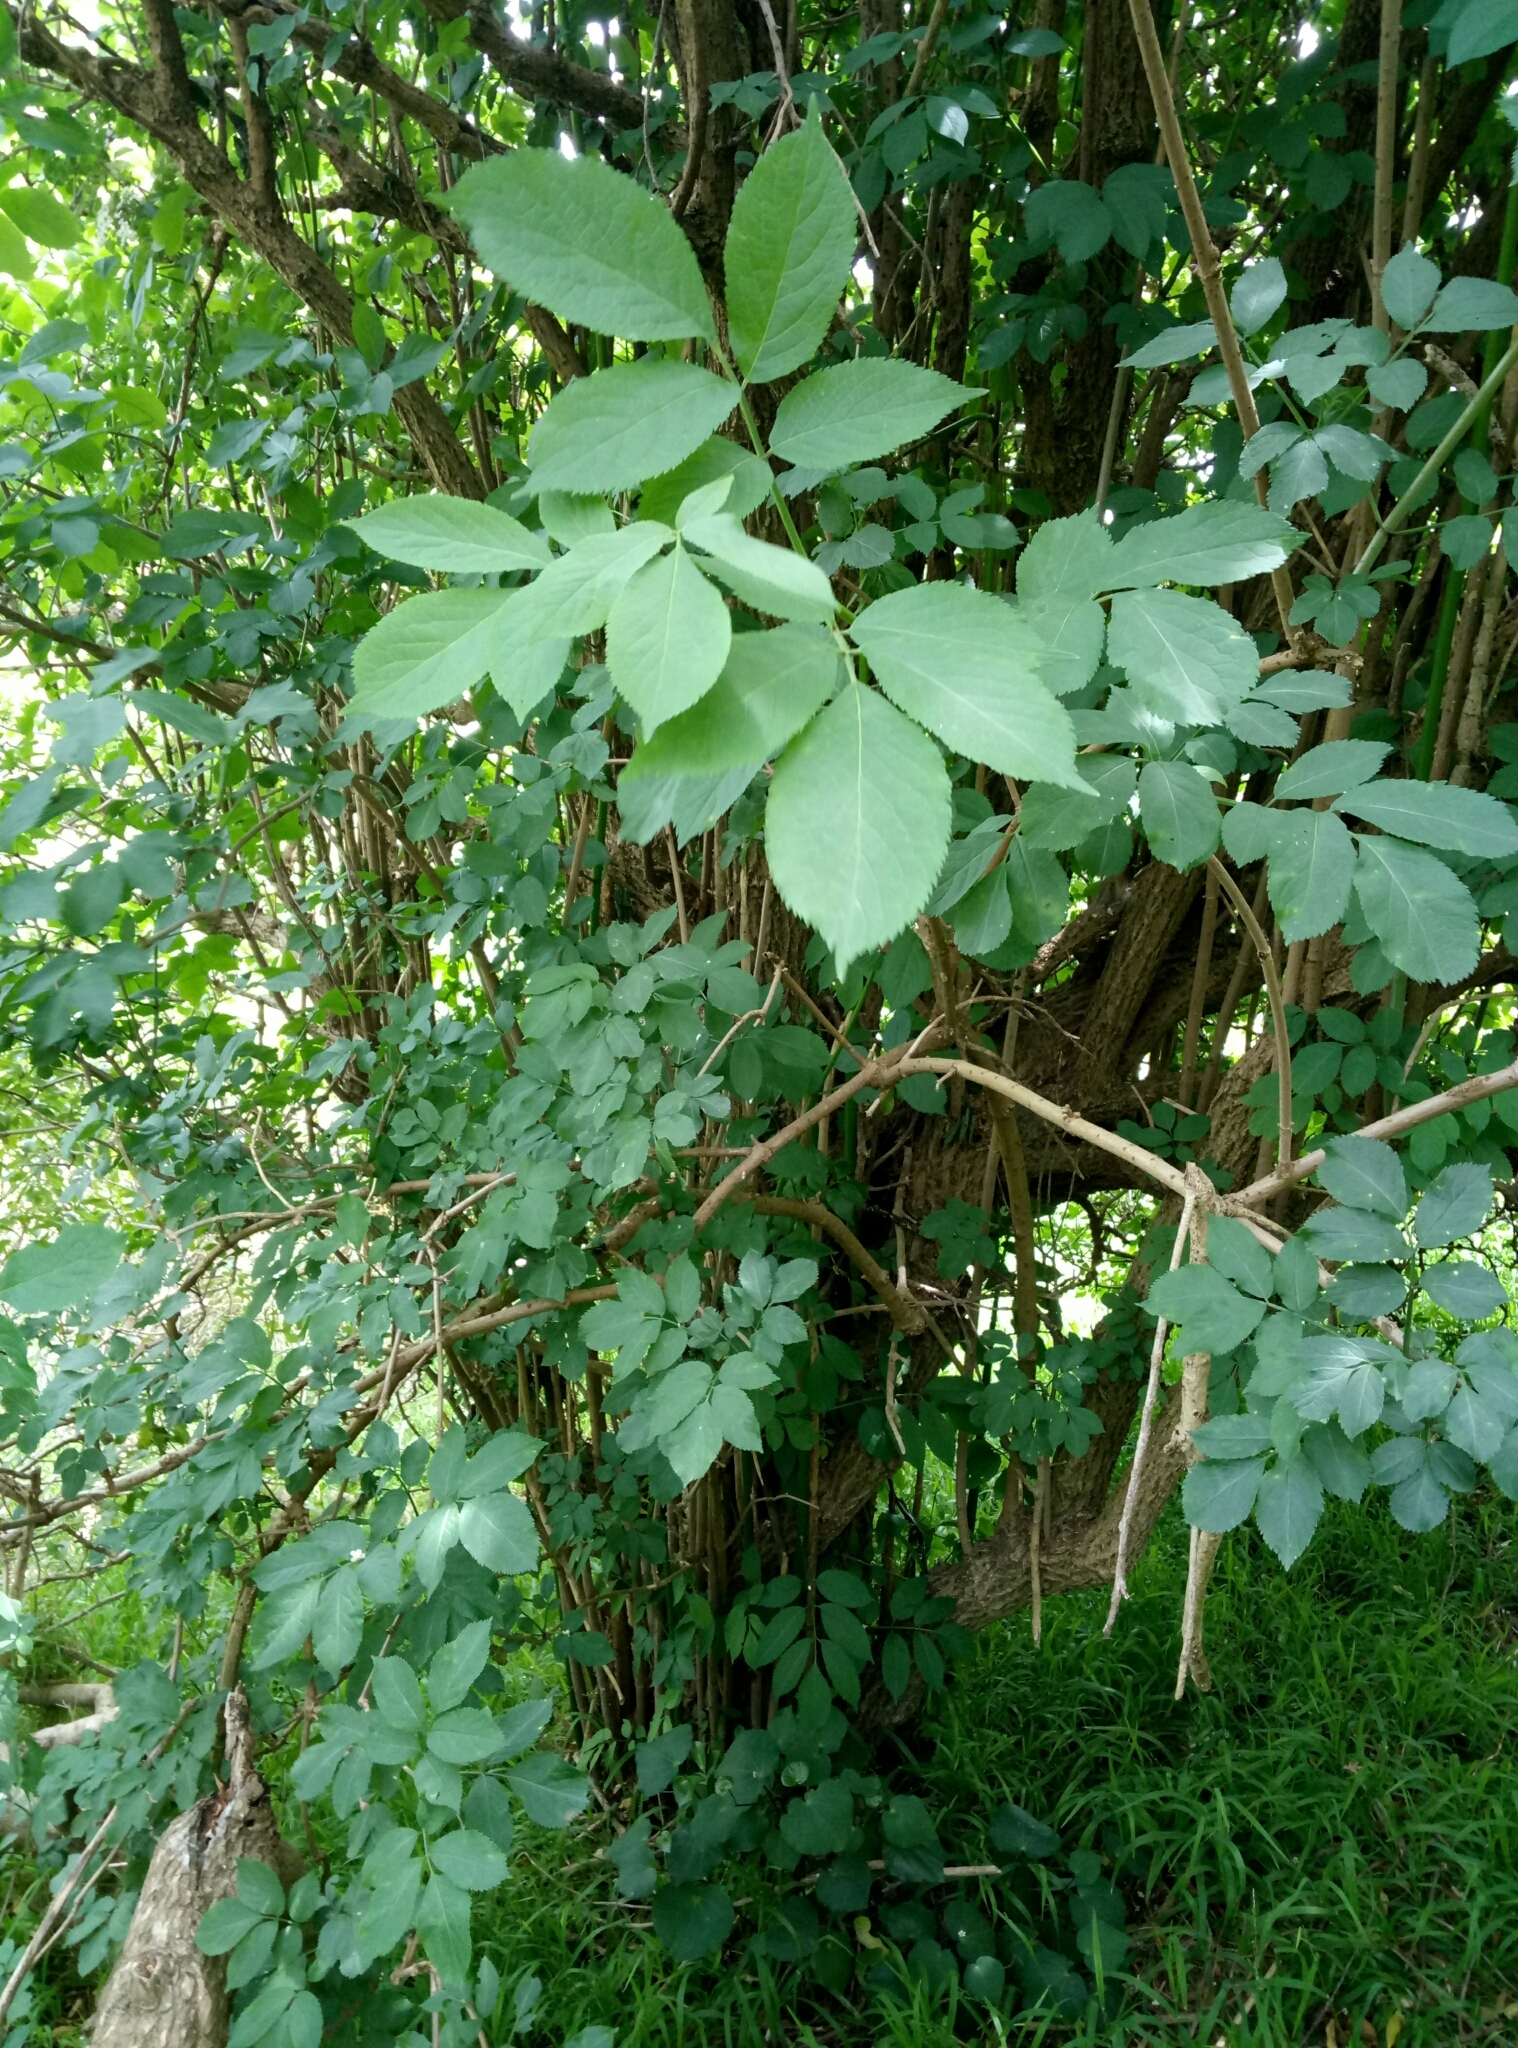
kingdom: Plantae
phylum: Tracheophyta
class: Magnoliopsida
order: Dipsacales
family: Viburnaceae
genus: Sambucus
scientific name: Sambucus nigra
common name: Elder
